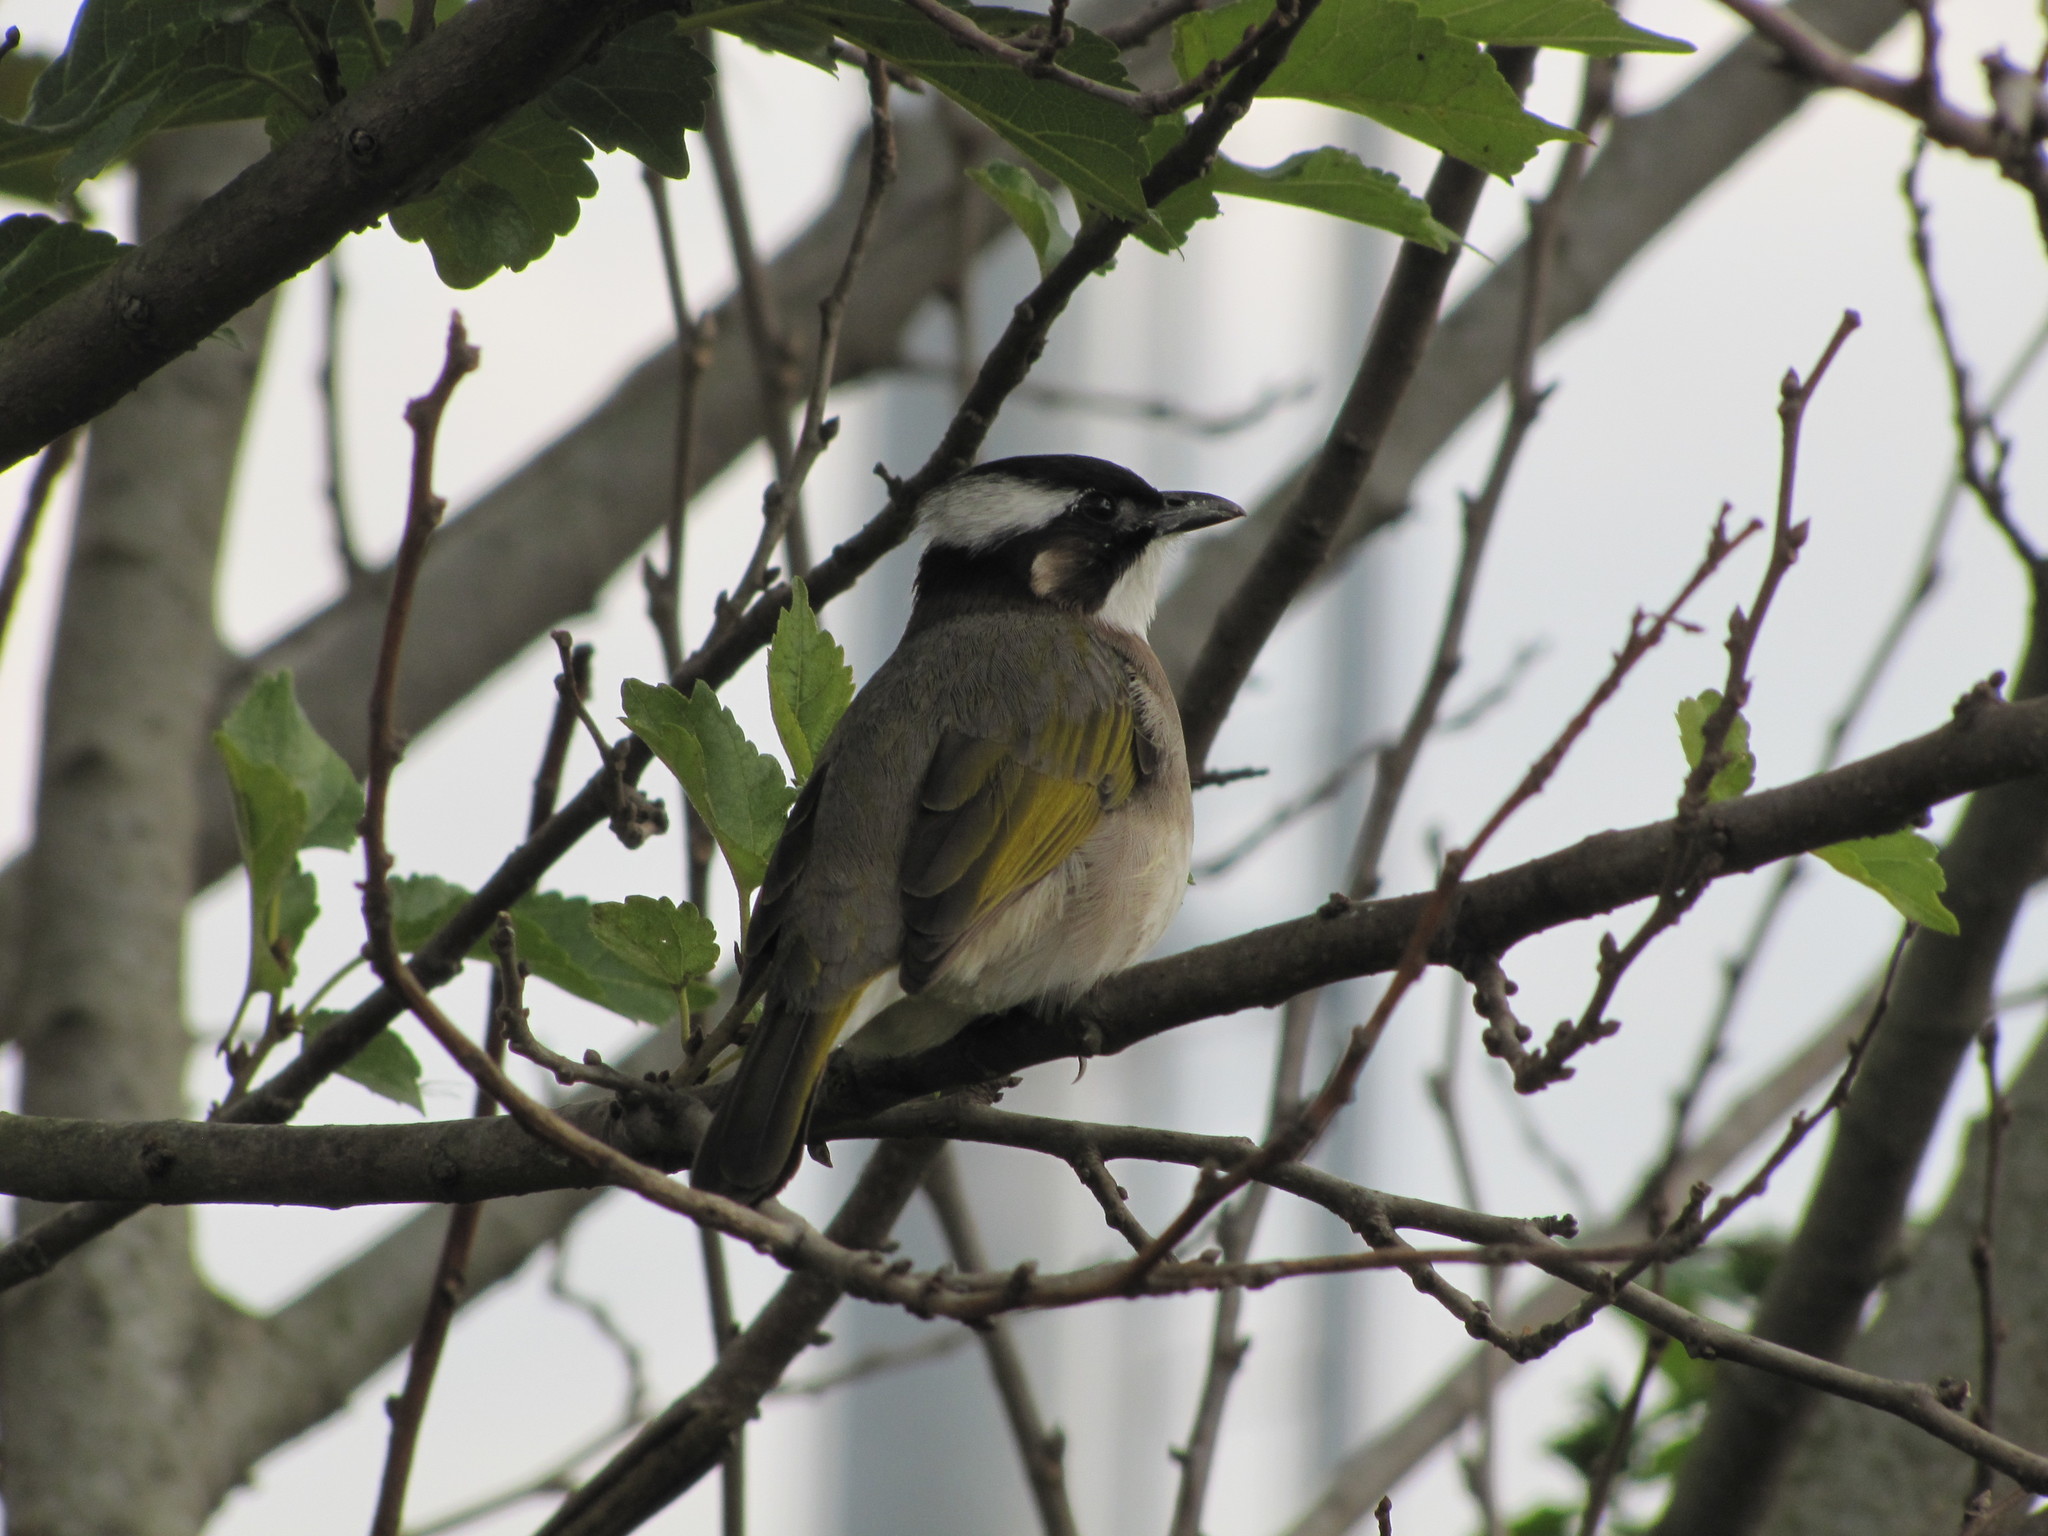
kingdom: Animalia
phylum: Chordata
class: Aves
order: Passeriformes
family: Pycnonotidae
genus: Pycnonotus
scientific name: Pycnonotus sinensis
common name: Light-vented bulbul
